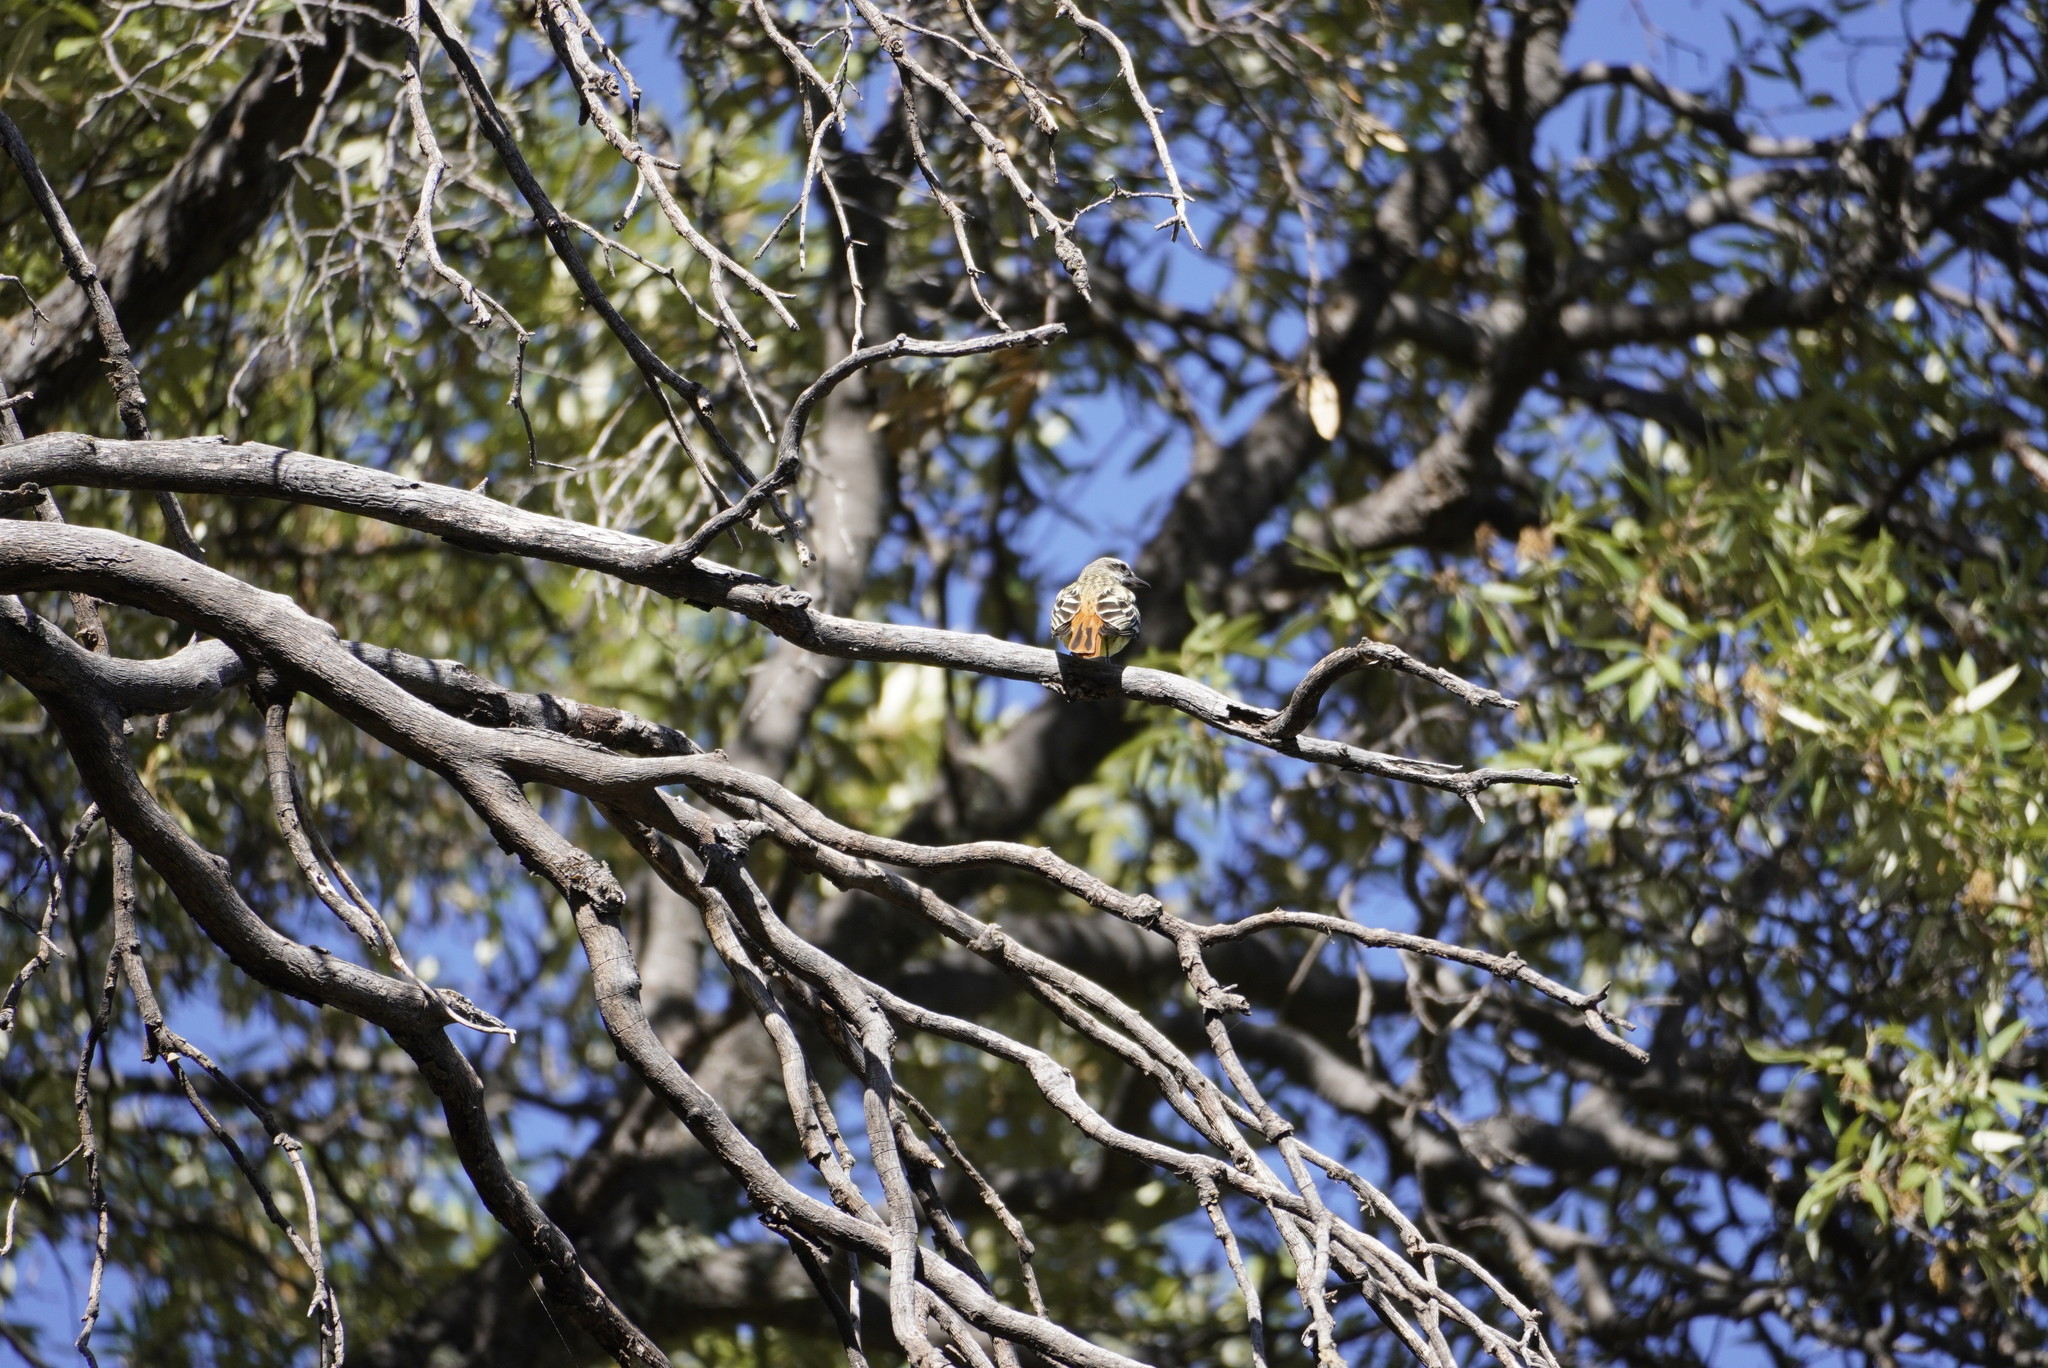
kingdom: Animalia
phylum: Chordata
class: Aves
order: Passeriformes
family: Tyrannidae
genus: Myiodynastes
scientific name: Myiodynastes luteiventris
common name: Sulphur-bellied flycatcher
